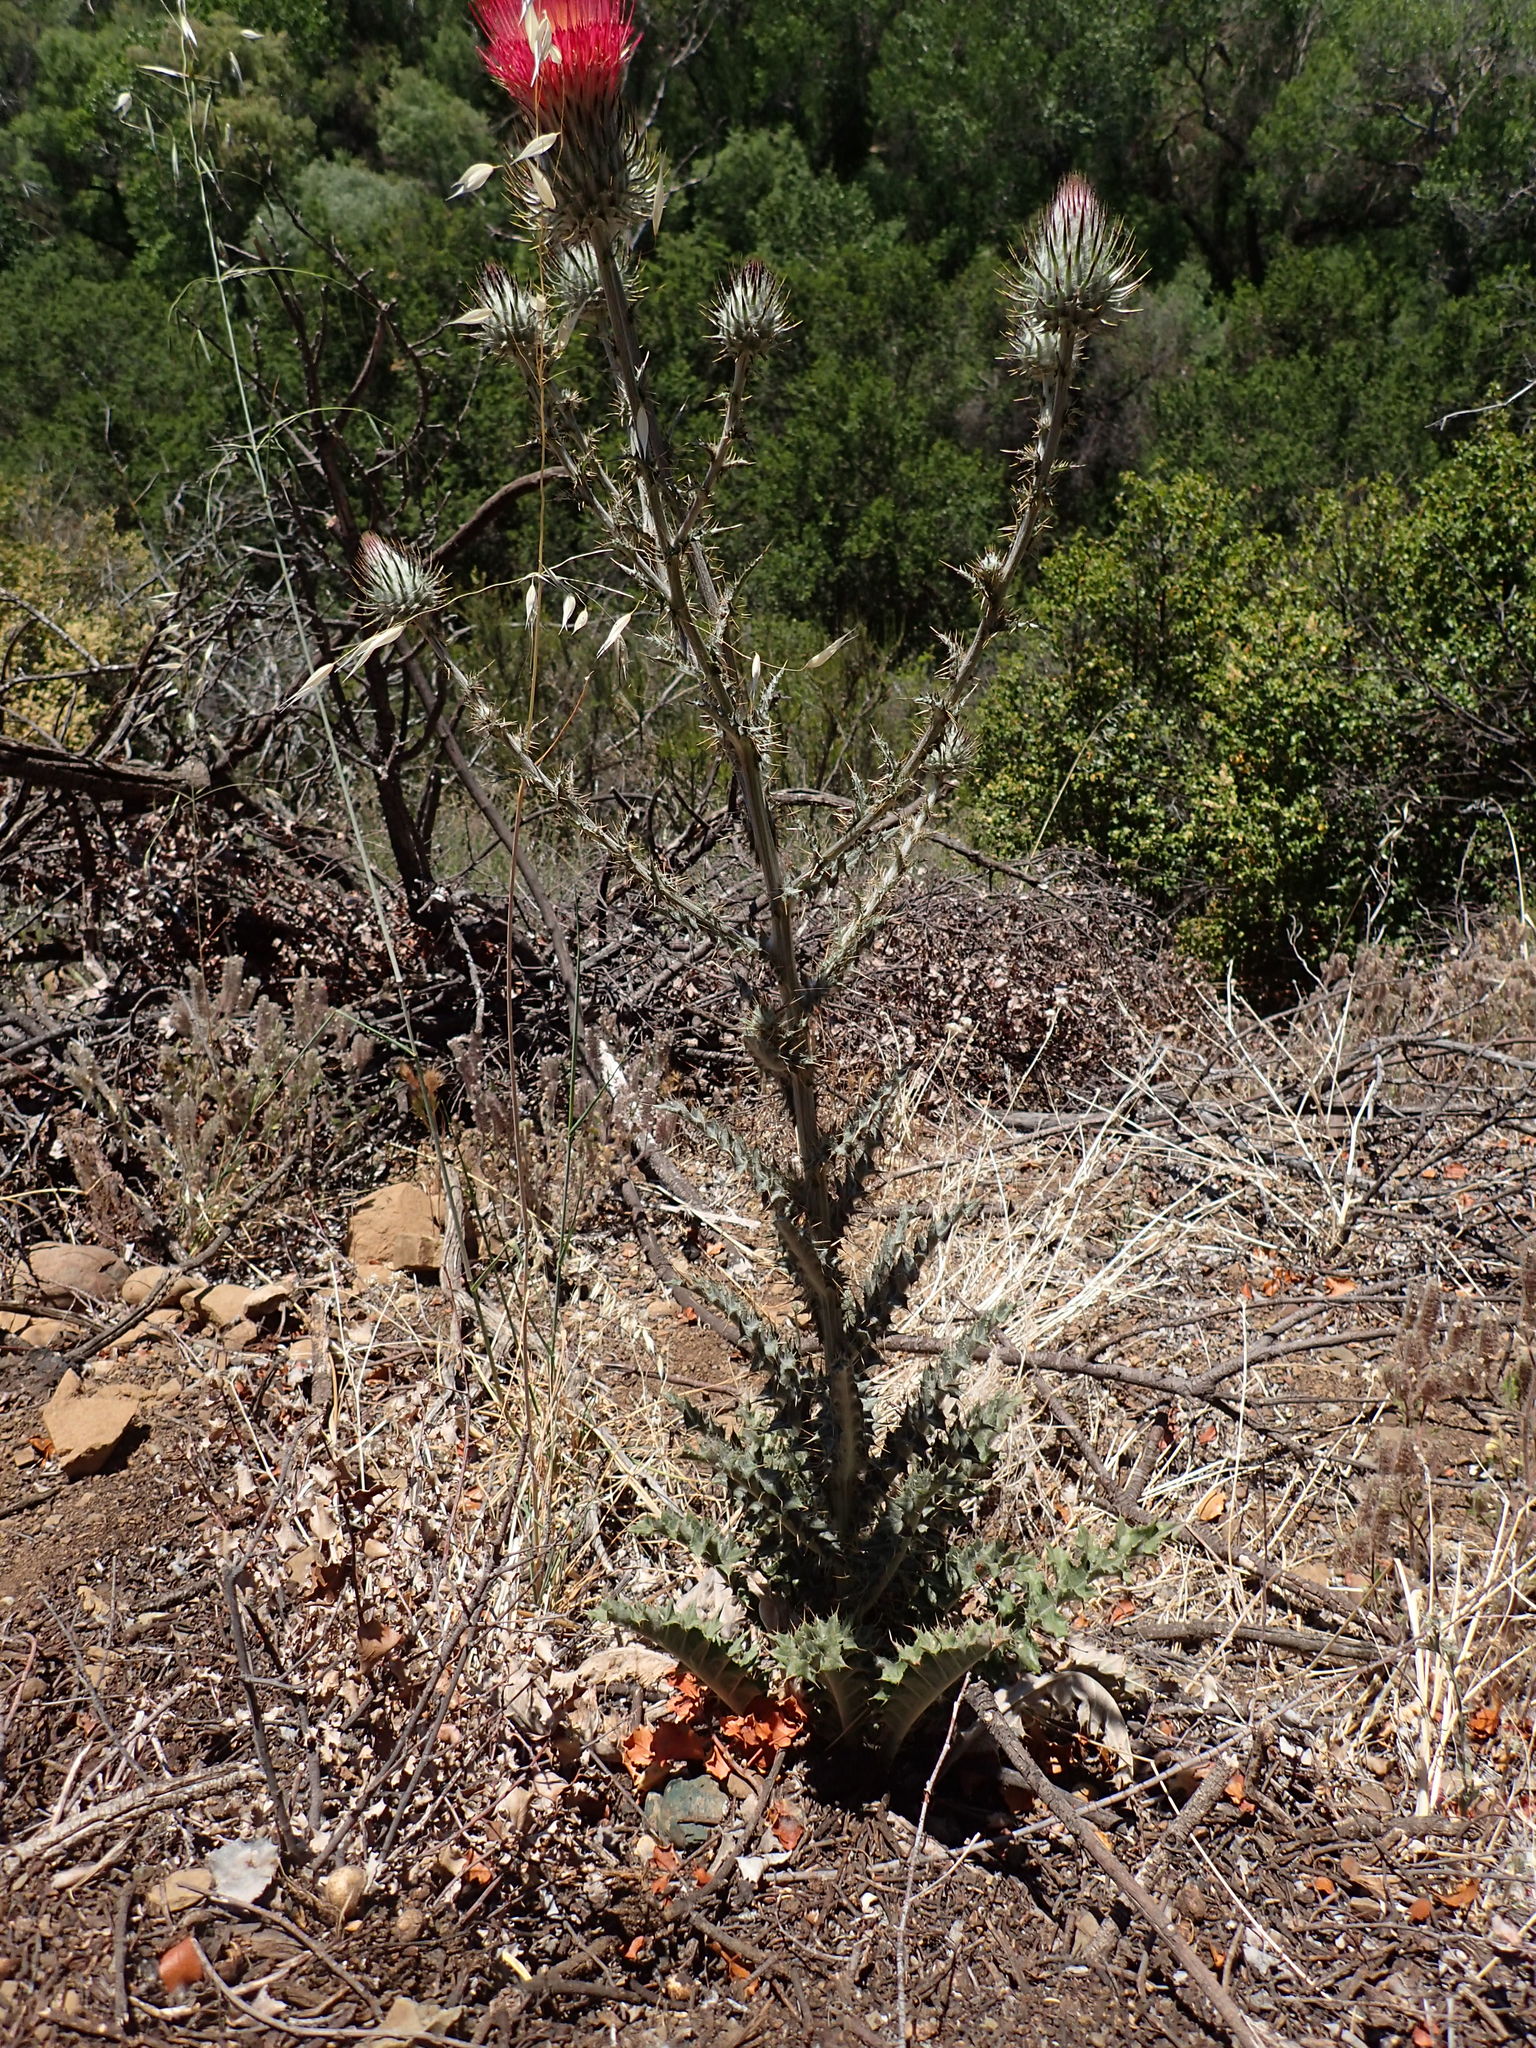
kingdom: Plantae
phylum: Tracheophyta
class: Magnoliopsida
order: Asterales
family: Asteraceae
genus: Cirsium
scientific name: Cirsium occidentale
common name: Western thistle
